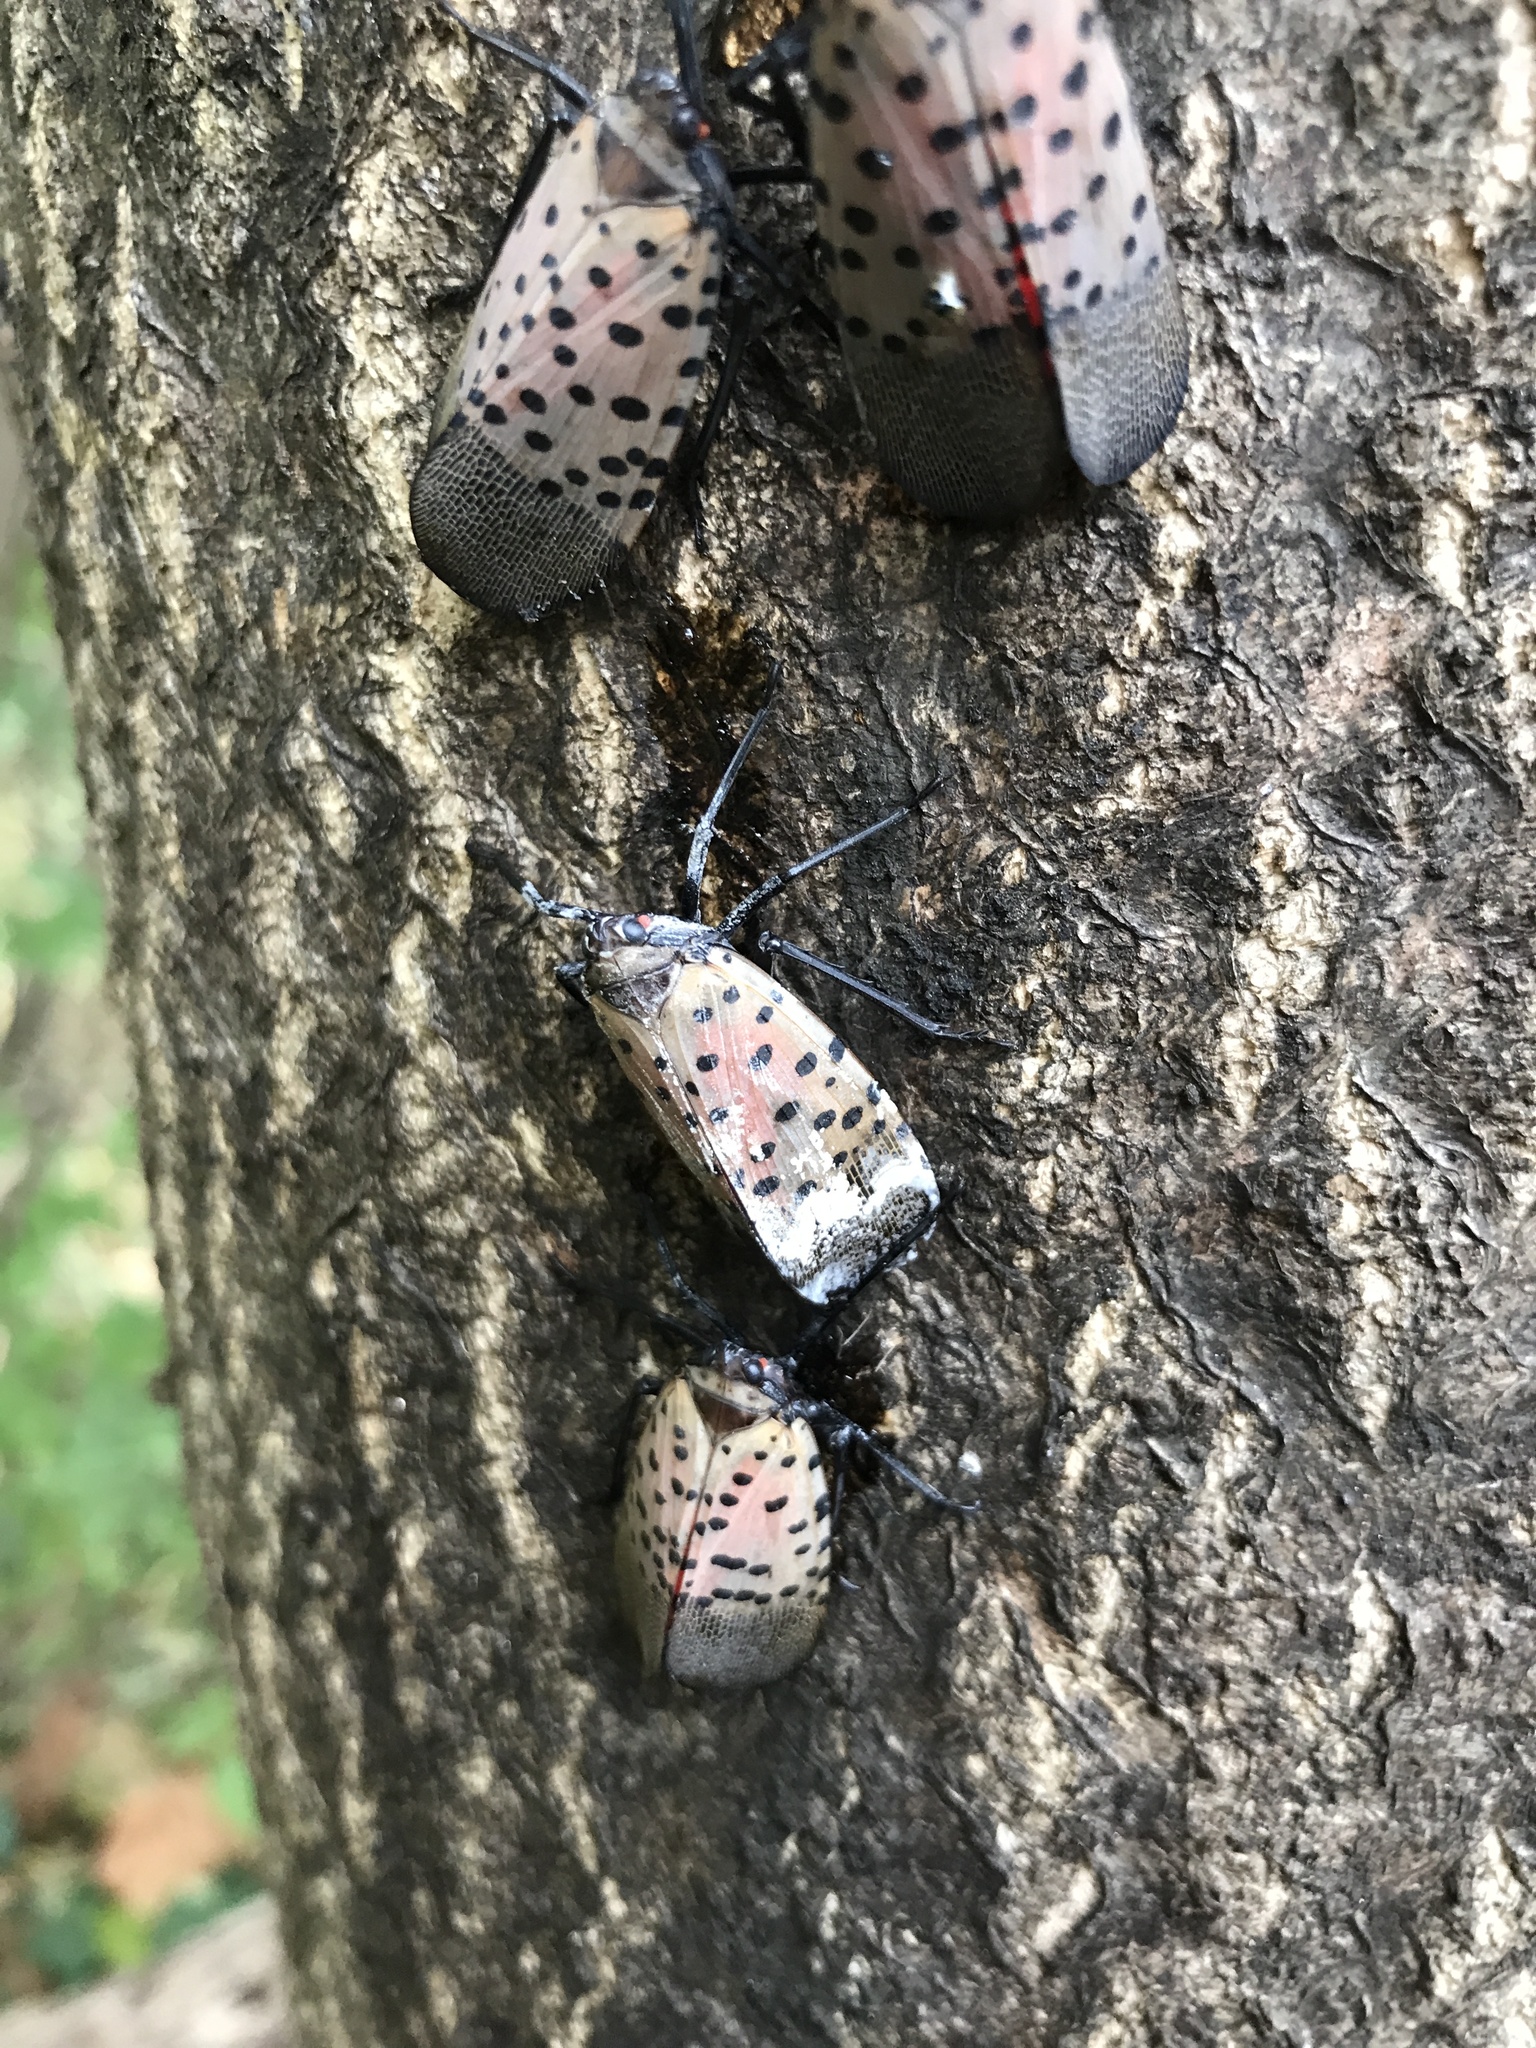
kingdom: Fungi
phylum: Ascomycota
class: Sordariomycetes
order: Hypocreales
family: Cordycipitaceae
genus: Beauveria
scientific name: Beauveria bassiana
